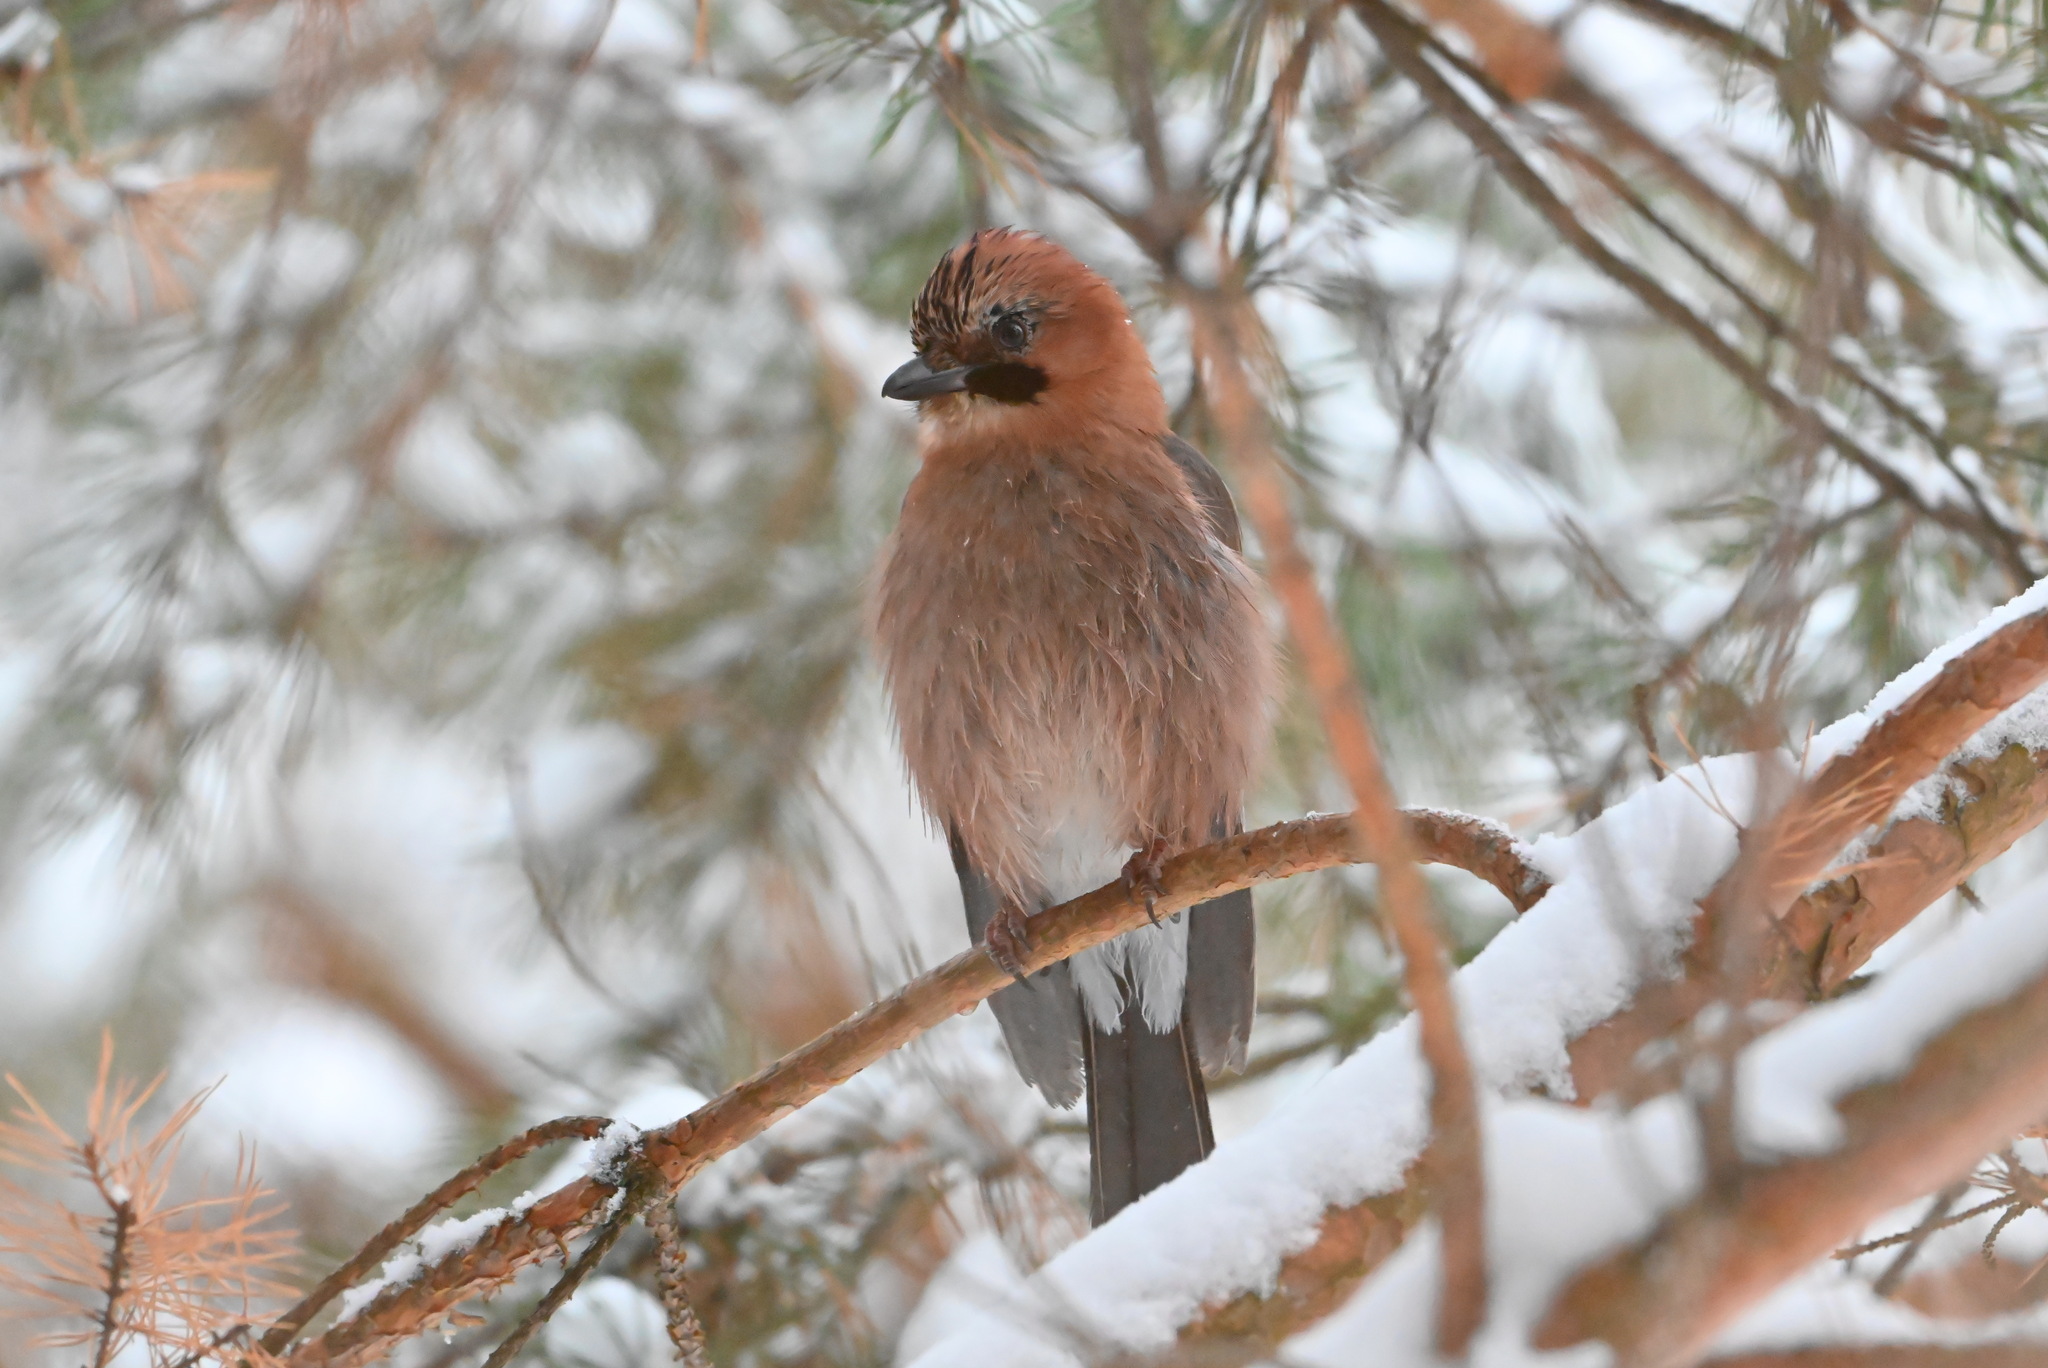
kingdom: Animalia
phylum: Chordata
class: Aves
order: Passeriformes
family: Corvidae
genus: Garrulus
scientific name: Garrulus glandarius
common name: Eurasian jay
